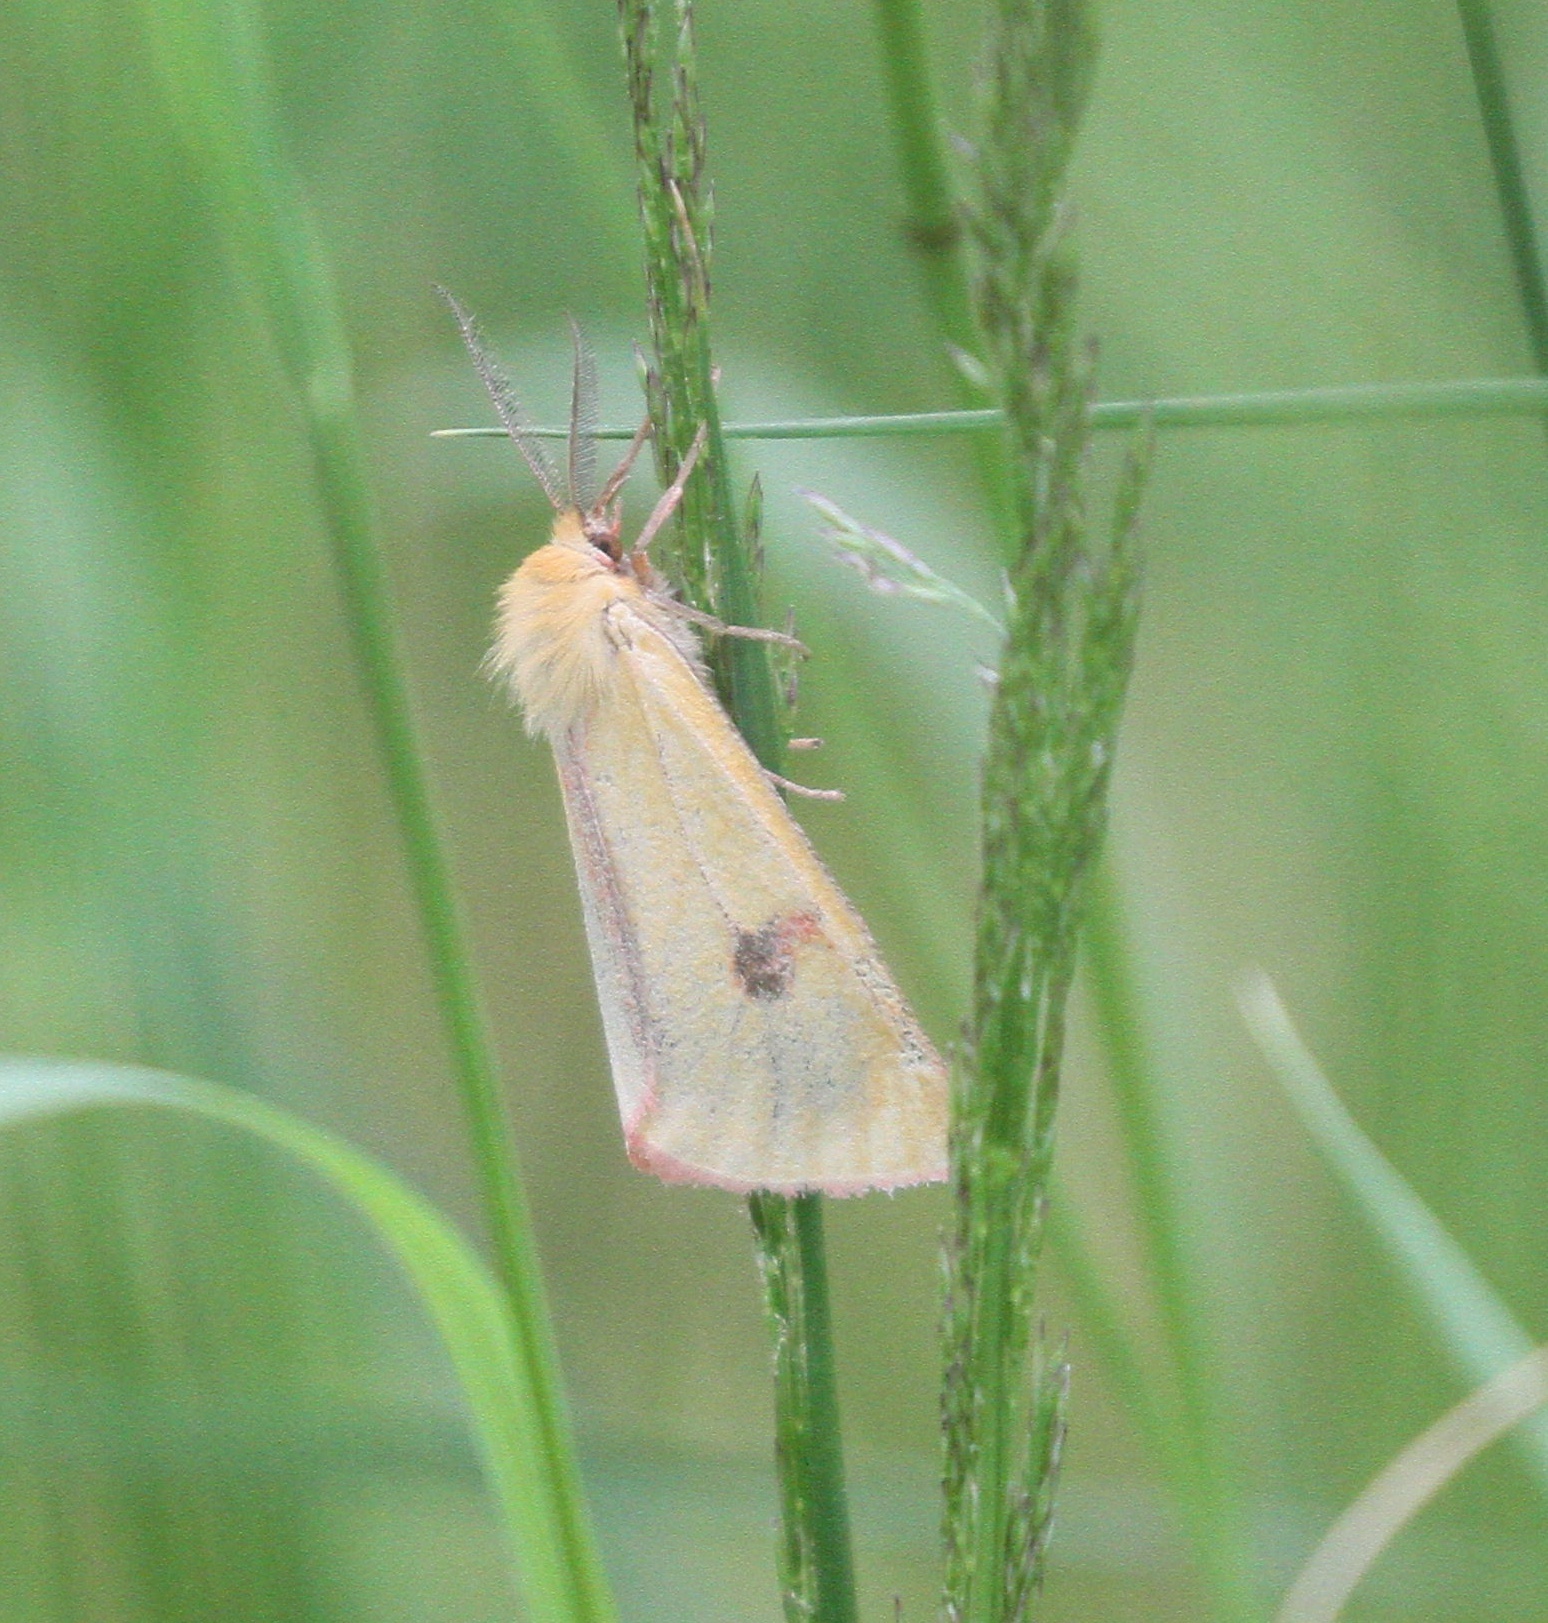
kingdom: Animalia
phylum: Arthropoda
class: Insecta
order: Lepidoptera
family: Erebidae
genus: Diacrisia
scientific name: Diacrisia sannio
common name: Clouded buff
